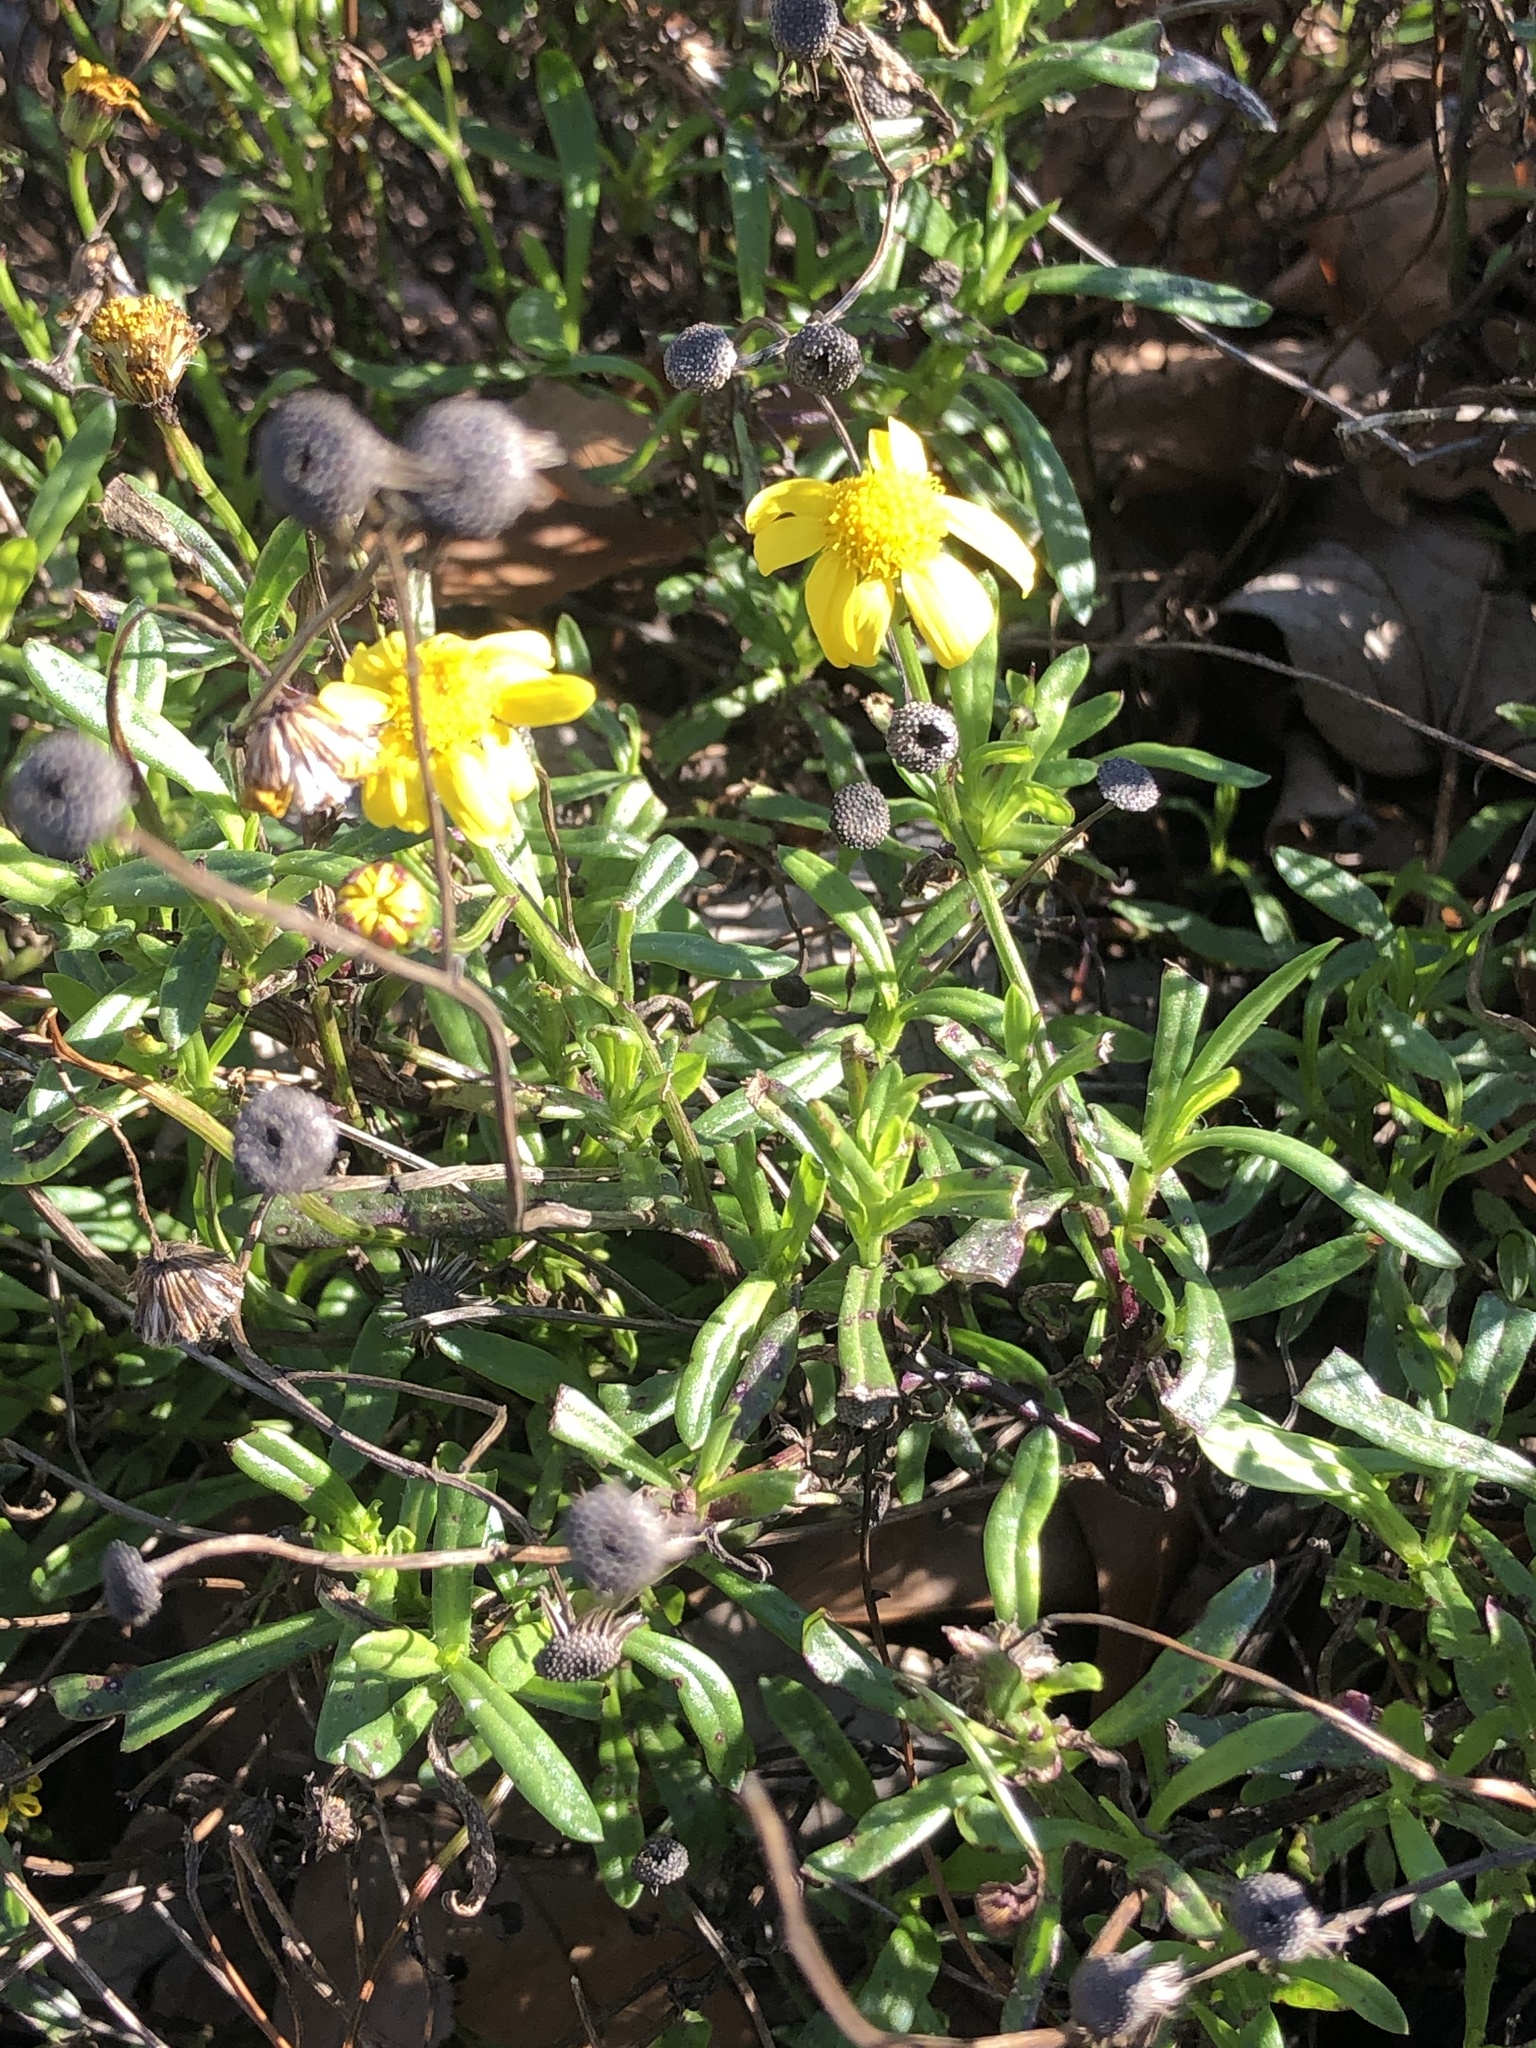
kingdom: Plantae
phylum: Tracheophyta
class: Magnoliopsida
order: Asterales
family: Asteraceae
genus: Senecio
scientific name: Senecio skirrhodon
